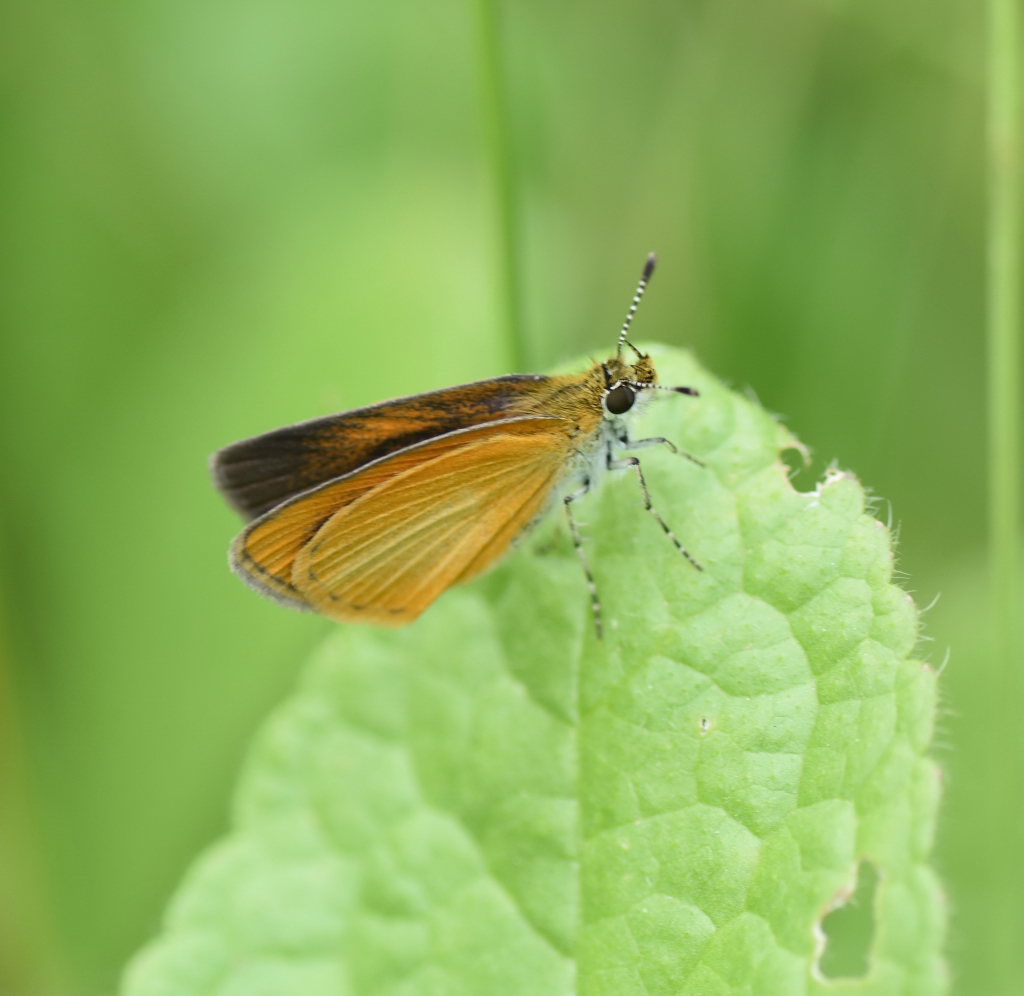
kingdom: Animalia
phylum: Arthropoda
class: Insecta
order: Lepidoptera
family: Hesperiidae
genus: Ancyloxypha
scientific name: Ancyloxypha numitor
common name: Least skipper
